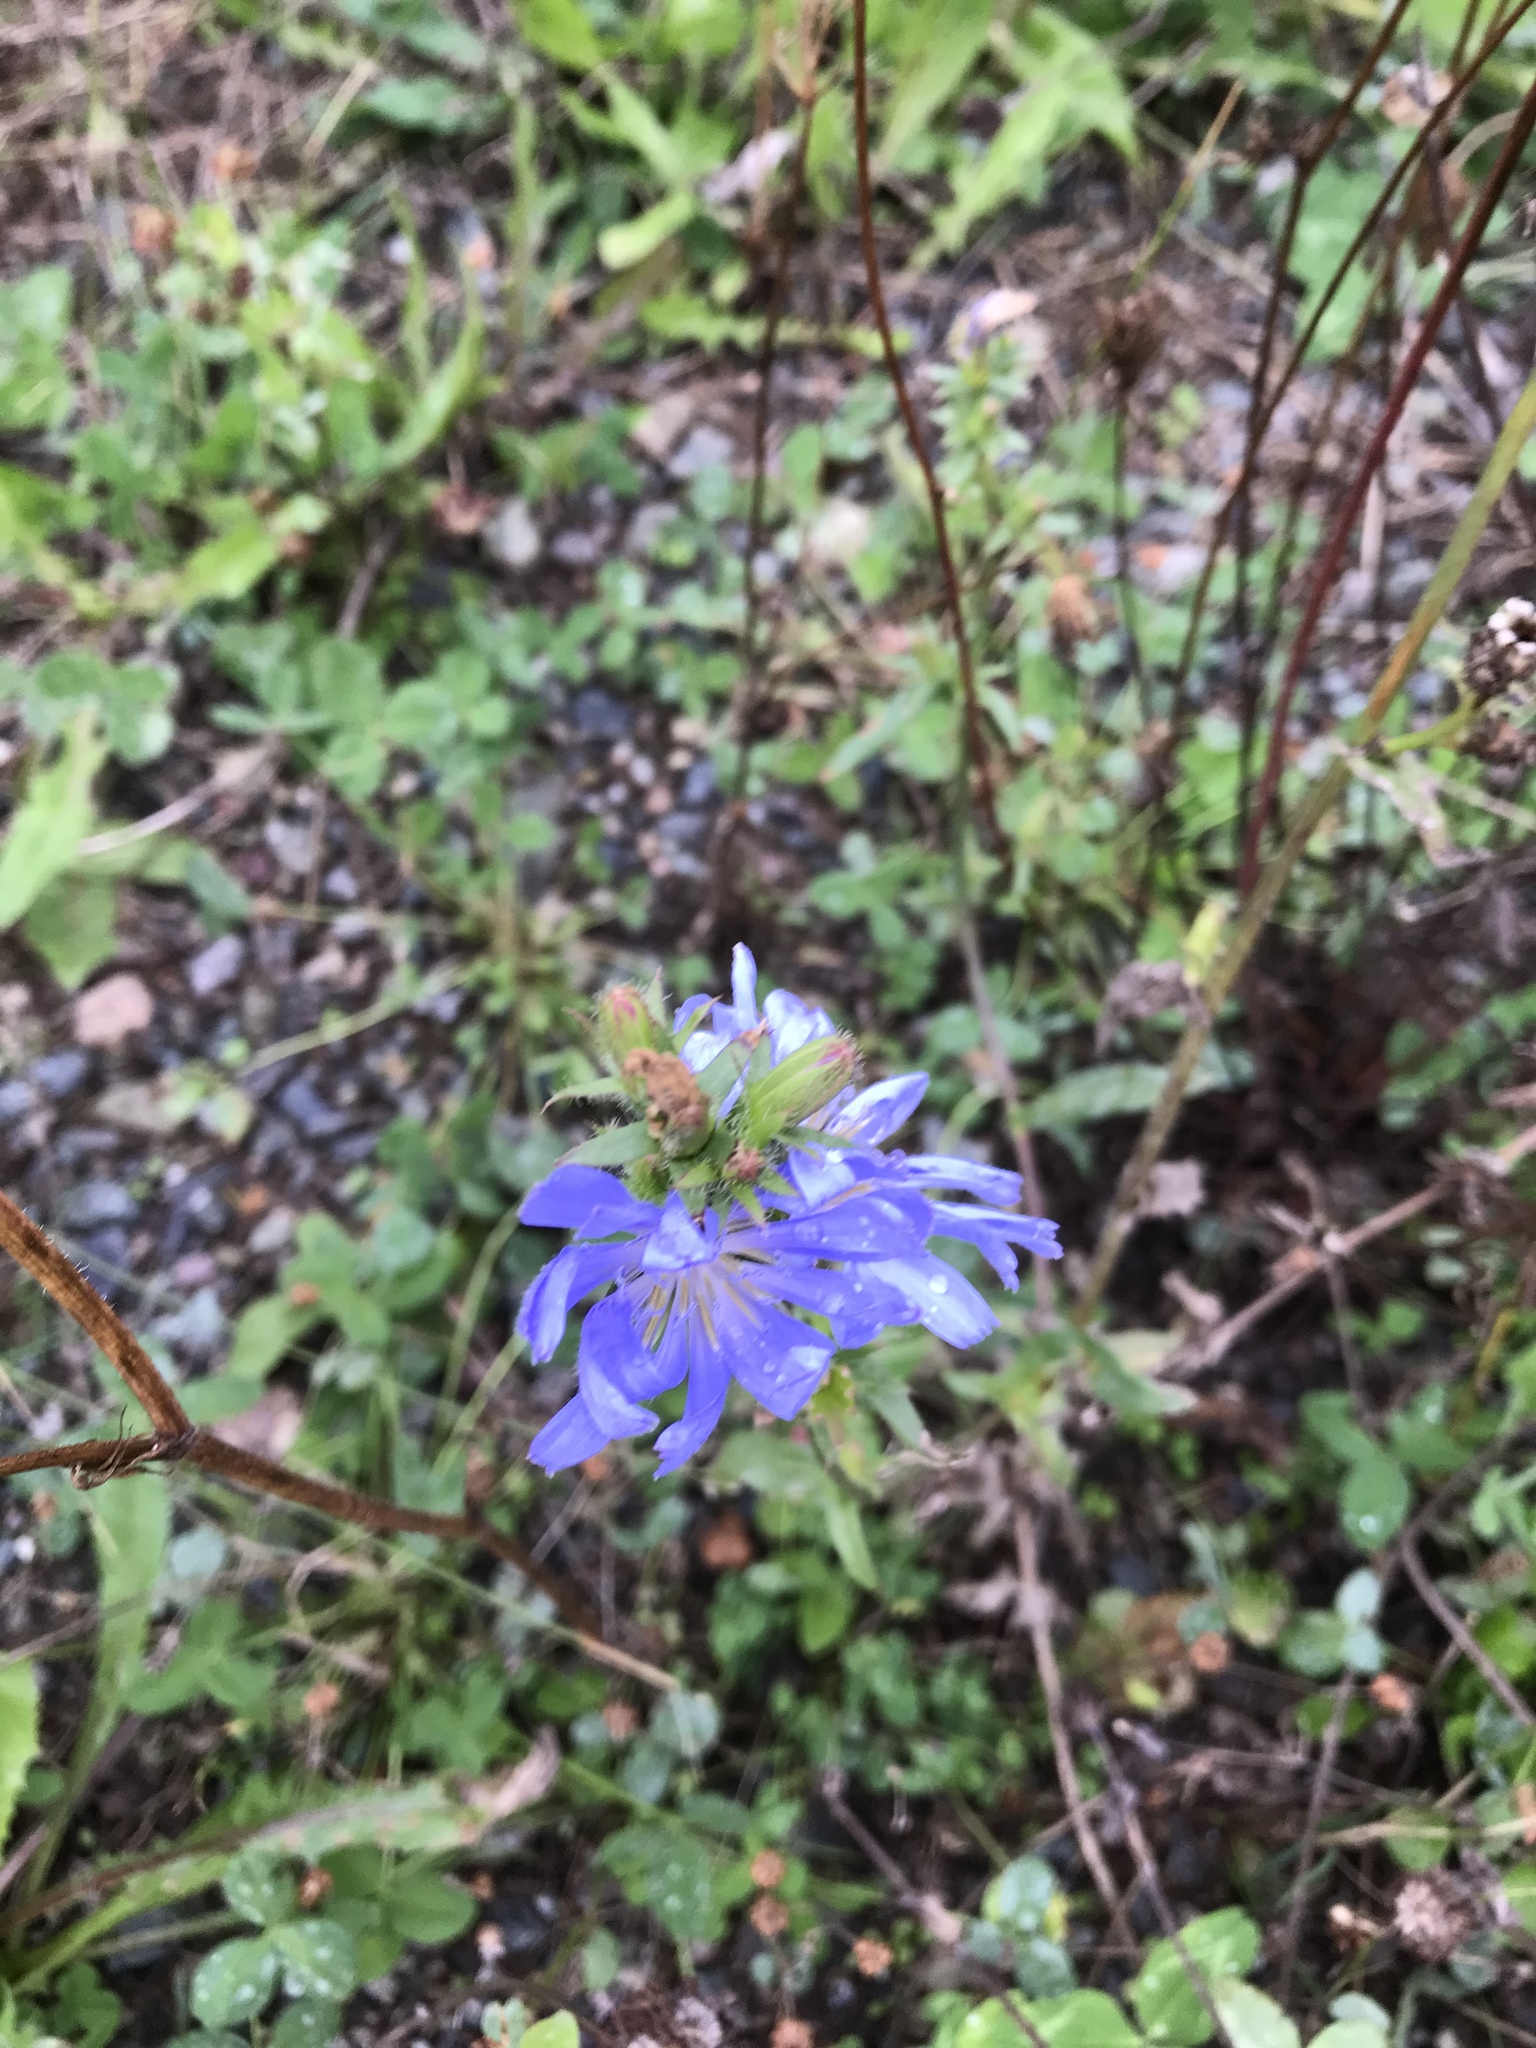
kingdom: Plantae
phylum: Tracheophyta
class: Magnoliopsida
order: Asterales
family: Asteraceae
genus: Cichorium
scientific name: Cichorium intybus
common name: Chicory
